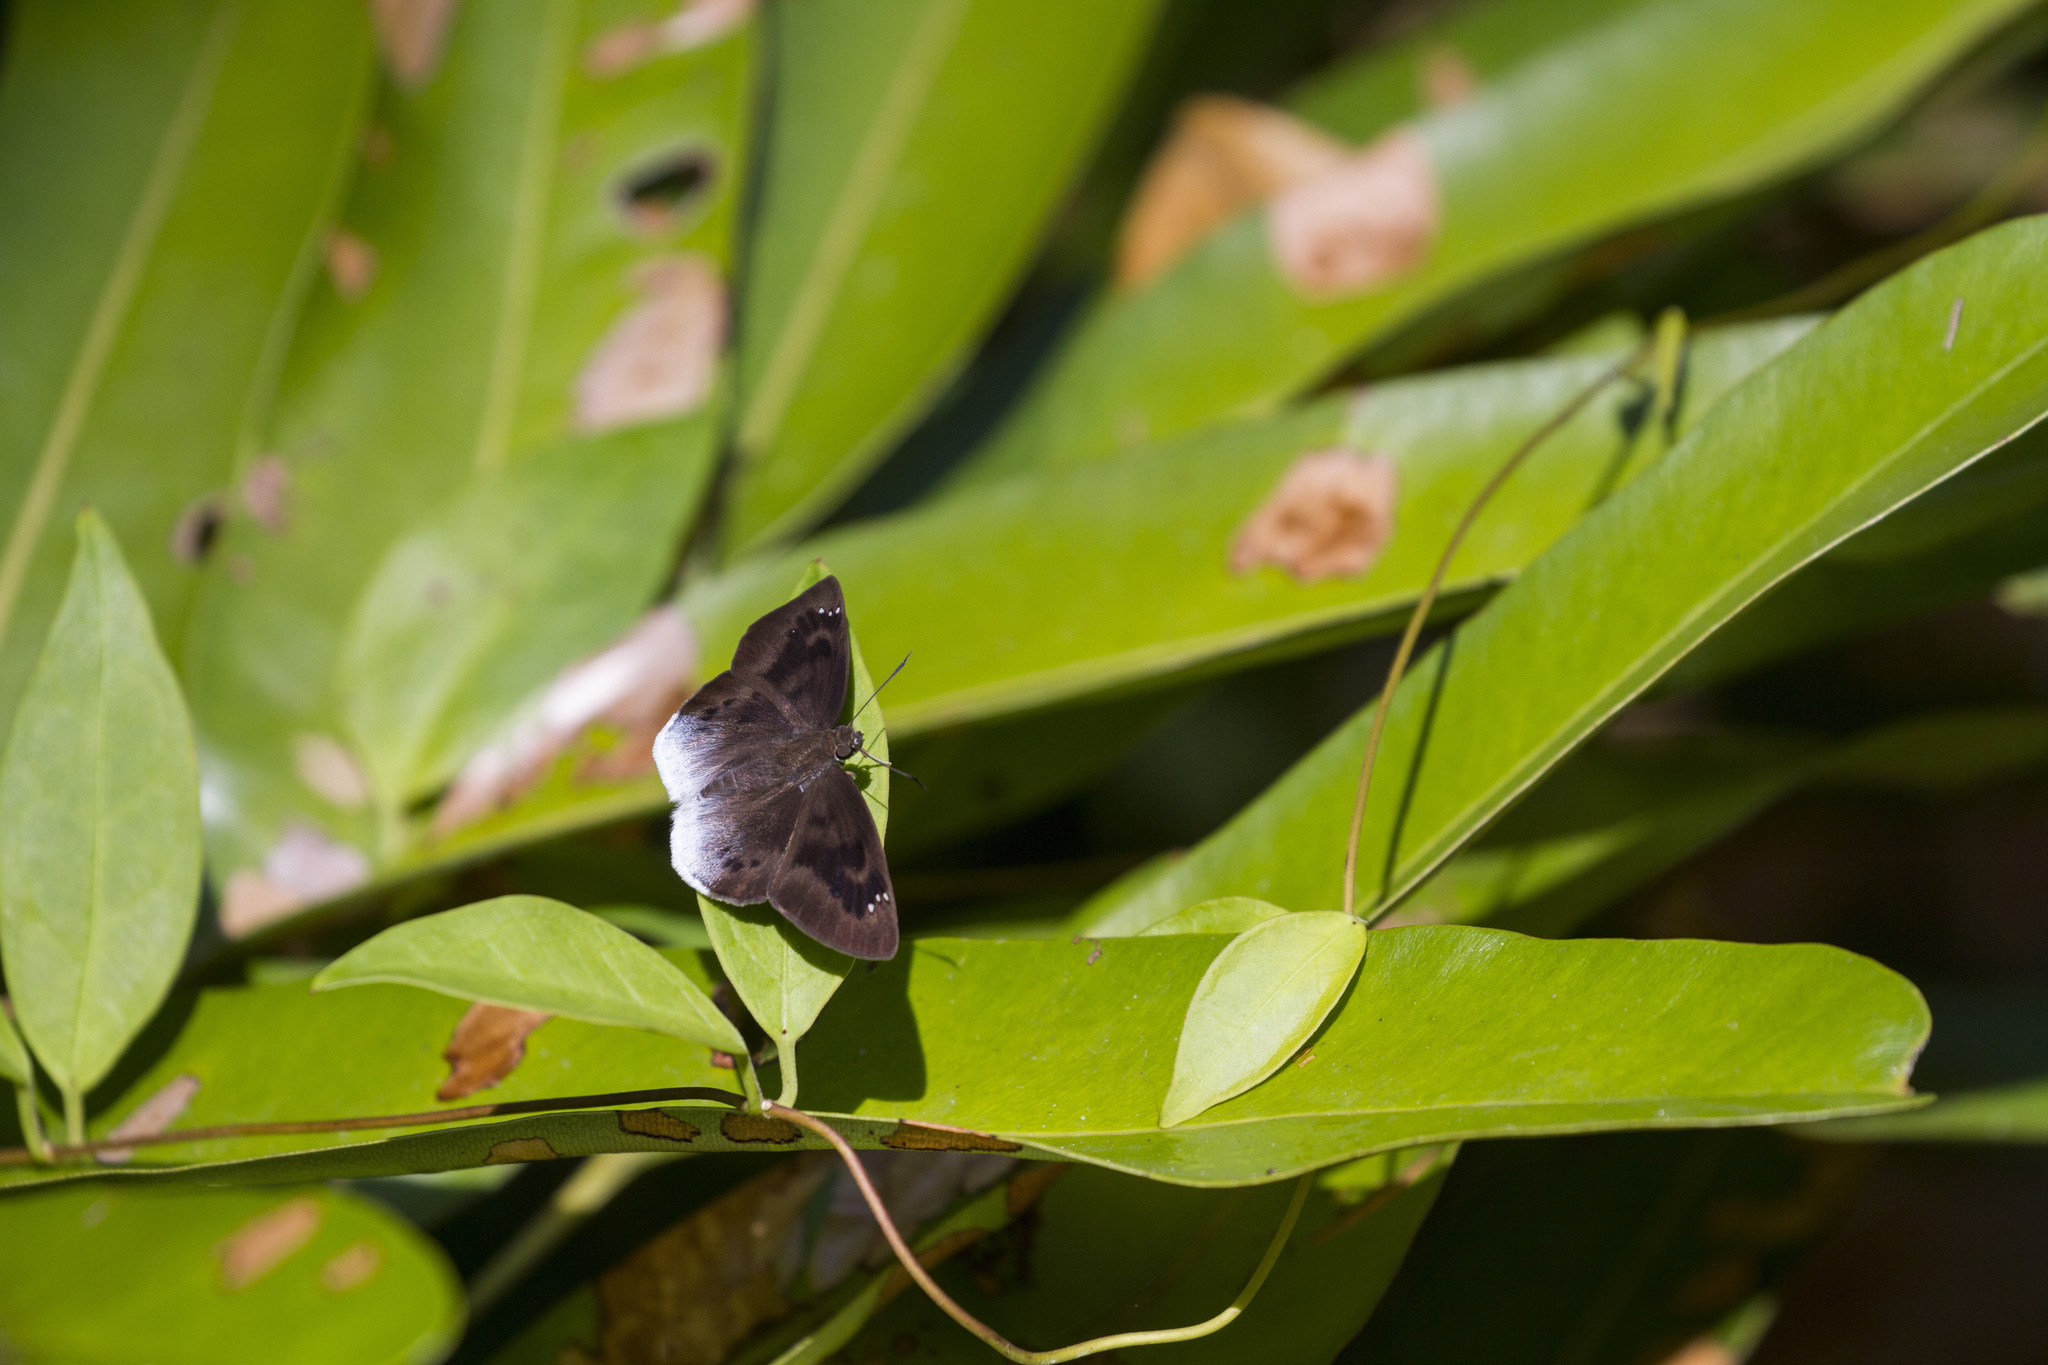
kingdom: Animalia
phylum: Arthropoda
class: Insecta
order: Lepidoptera
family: Hesperiidae
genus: Tagiades
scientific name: Tagiades gana
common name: Suffused snow flat
